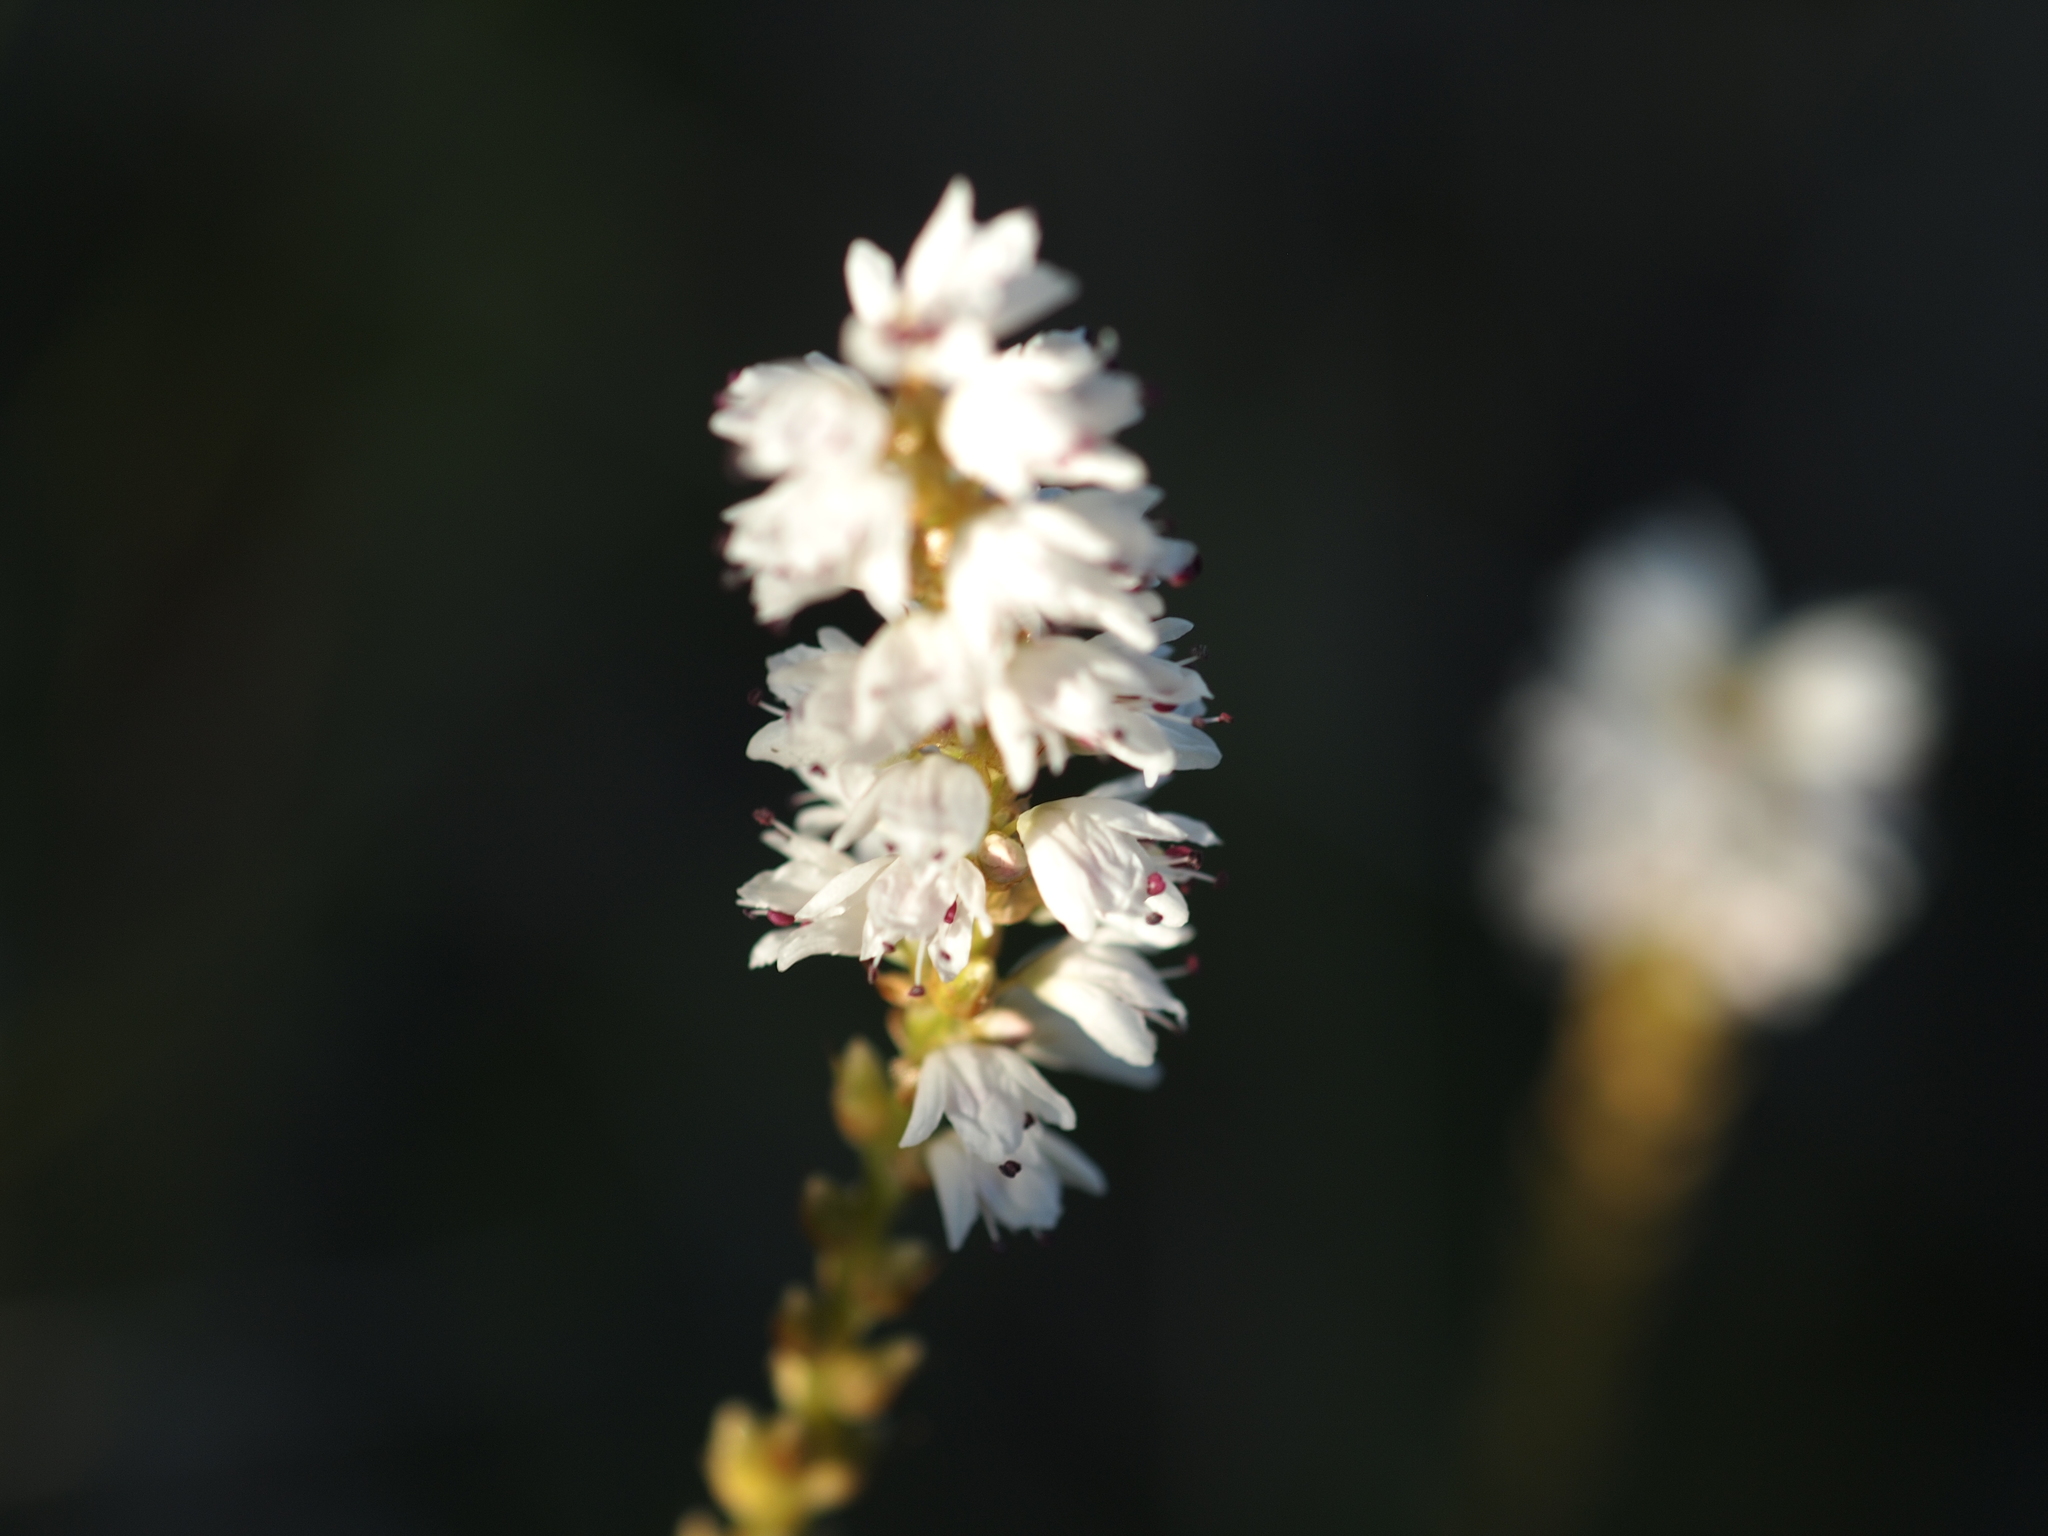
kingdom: Plantae
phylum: Tracheophyta
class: Magnoliopsida
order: Caryophyllales
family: Polygonaceae
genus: Bistorta
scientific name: Bistorta vivipara
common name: Alpine bistort
